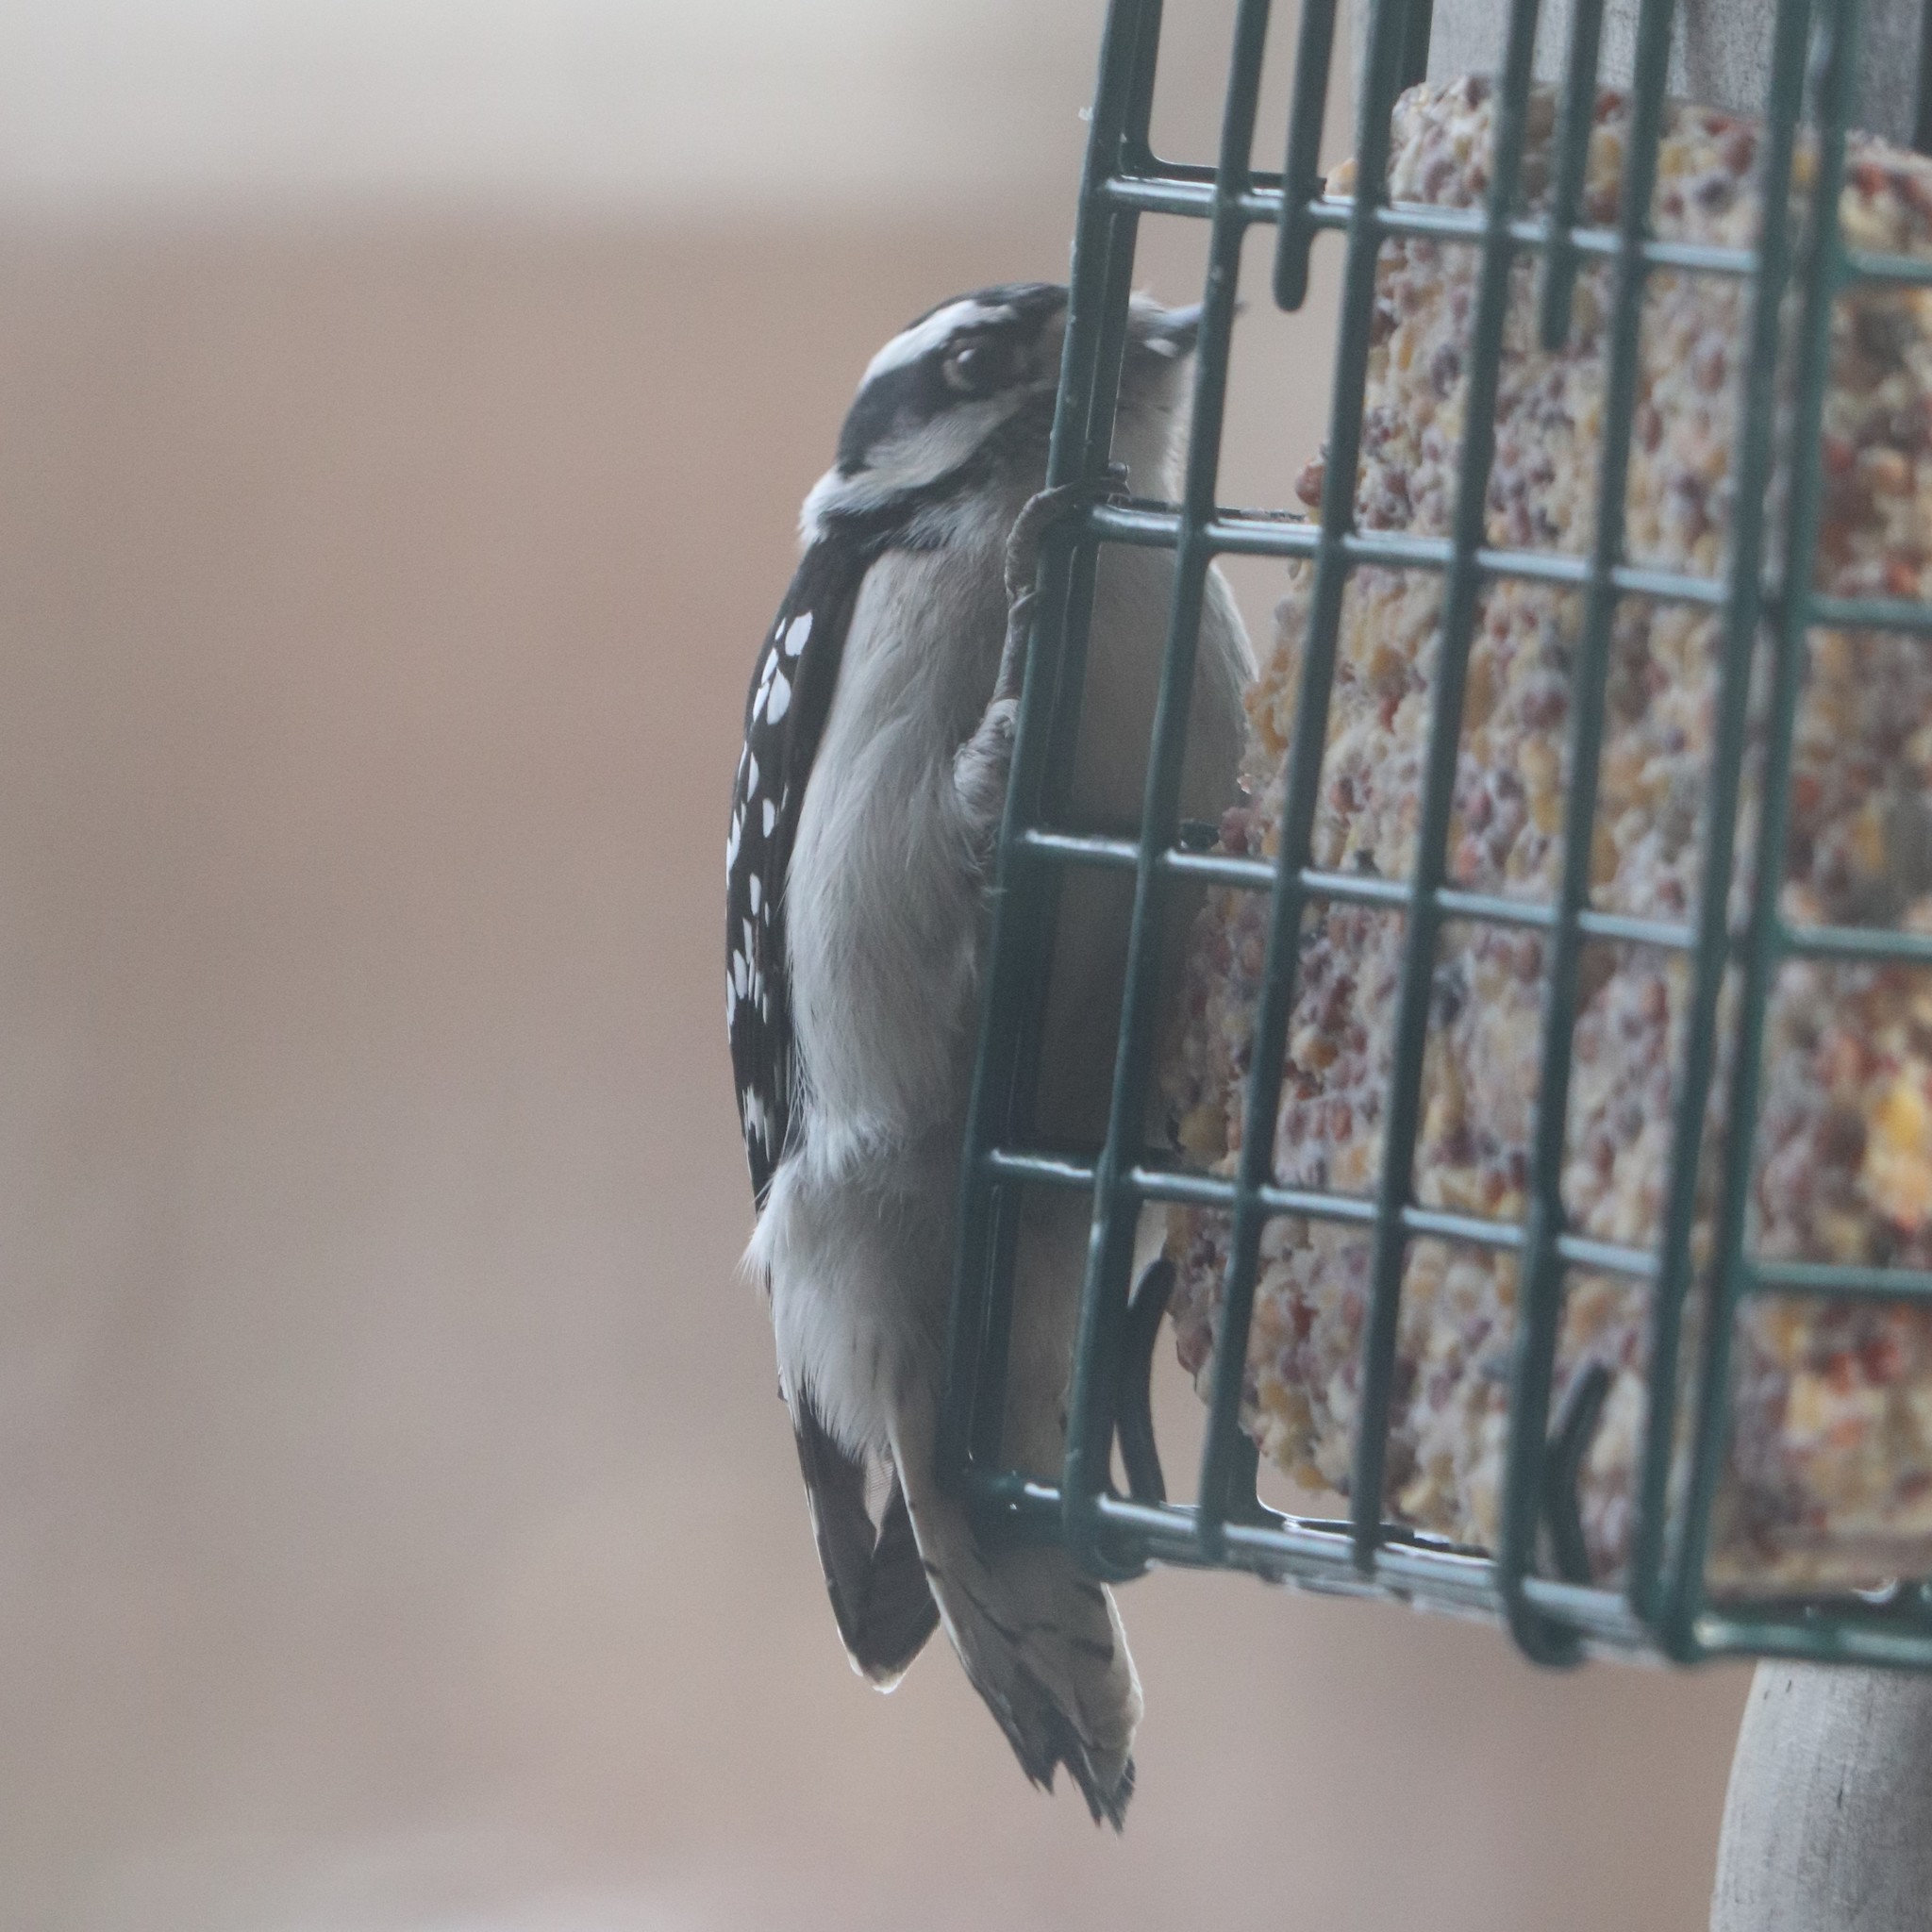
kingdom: Animalia
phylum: Chordata
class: Aves
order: Piciformes
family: Picidae
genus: Dryobates
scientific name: Dryobates pubescens
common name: Downy woodpecker
